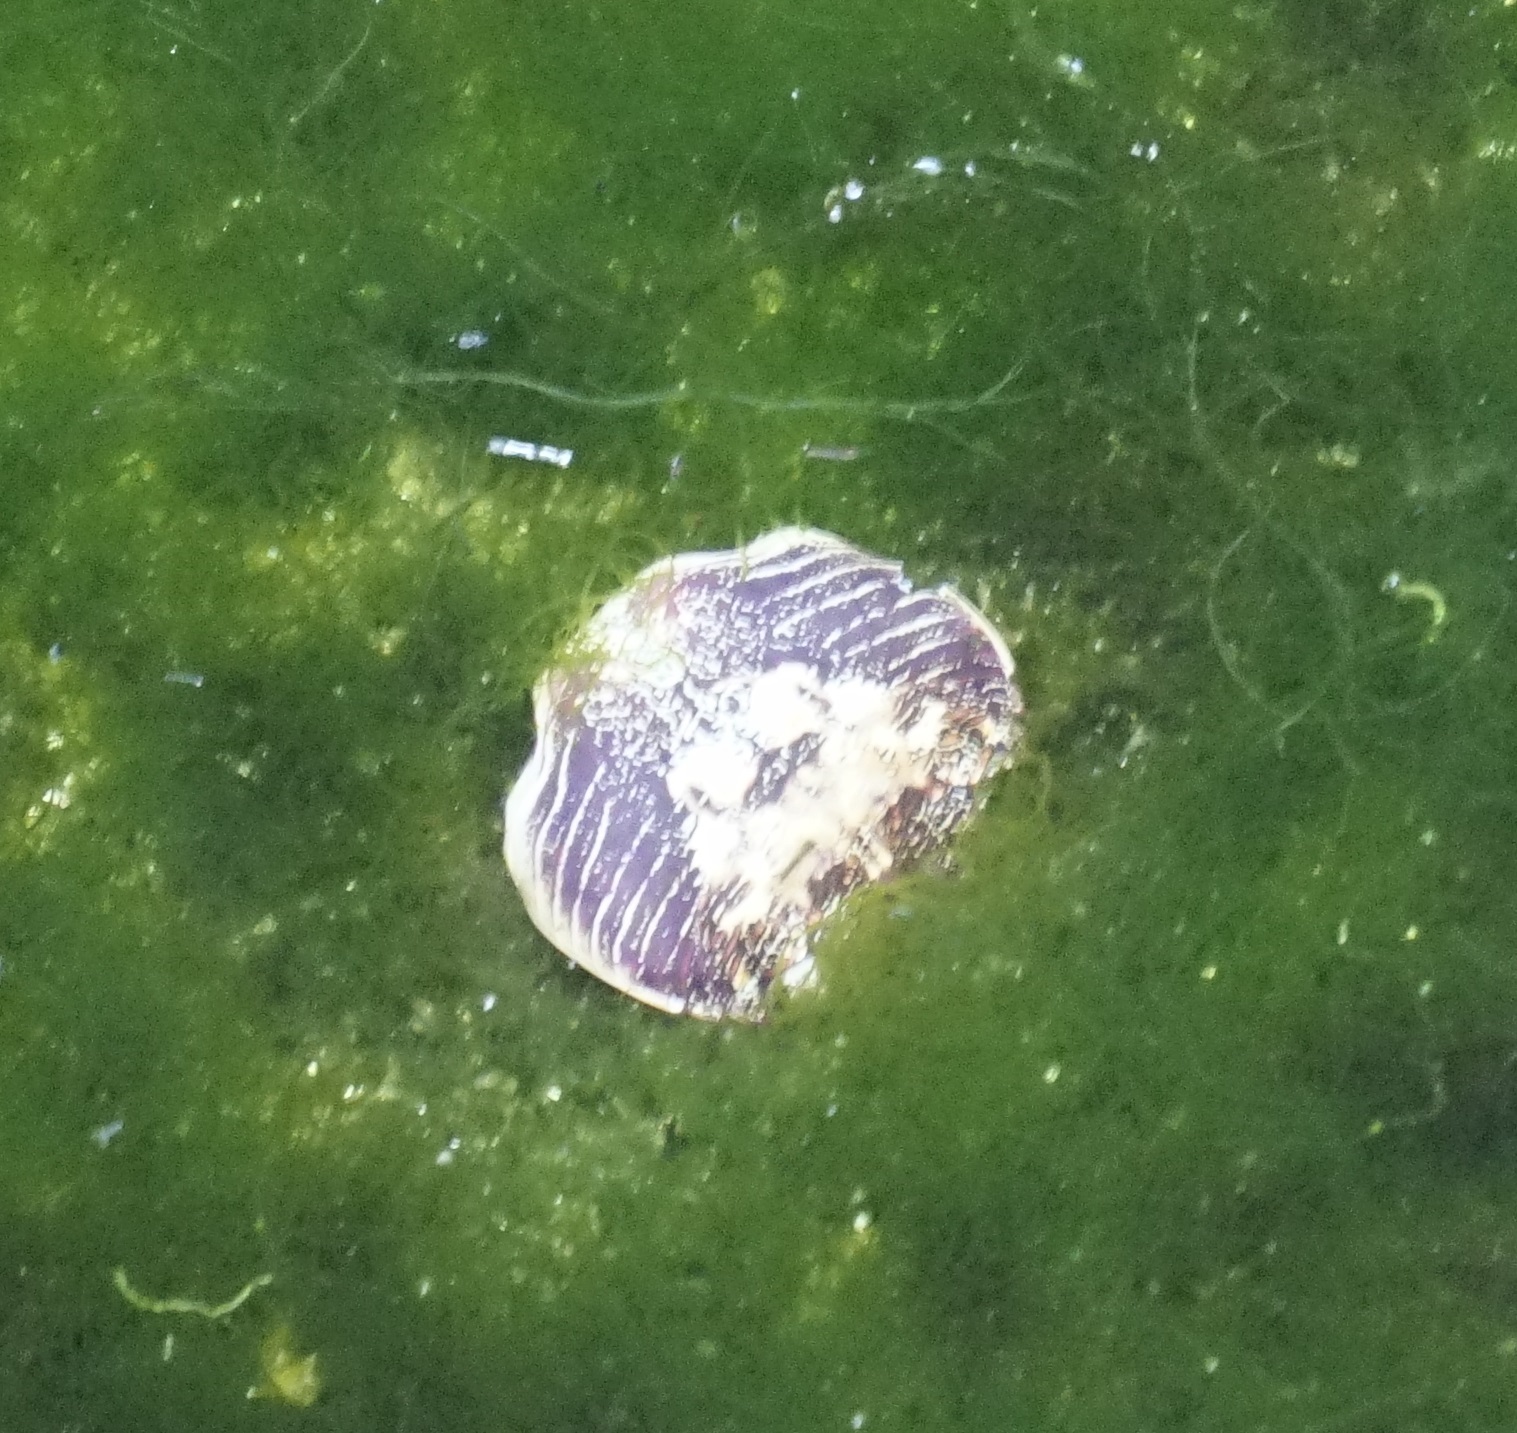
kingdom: Animalia
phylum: Arthropoda
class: Malacostraca
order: Decapoda
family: Grapsidae
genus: Leptograpsus
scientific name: Leptograpsus variegatus
